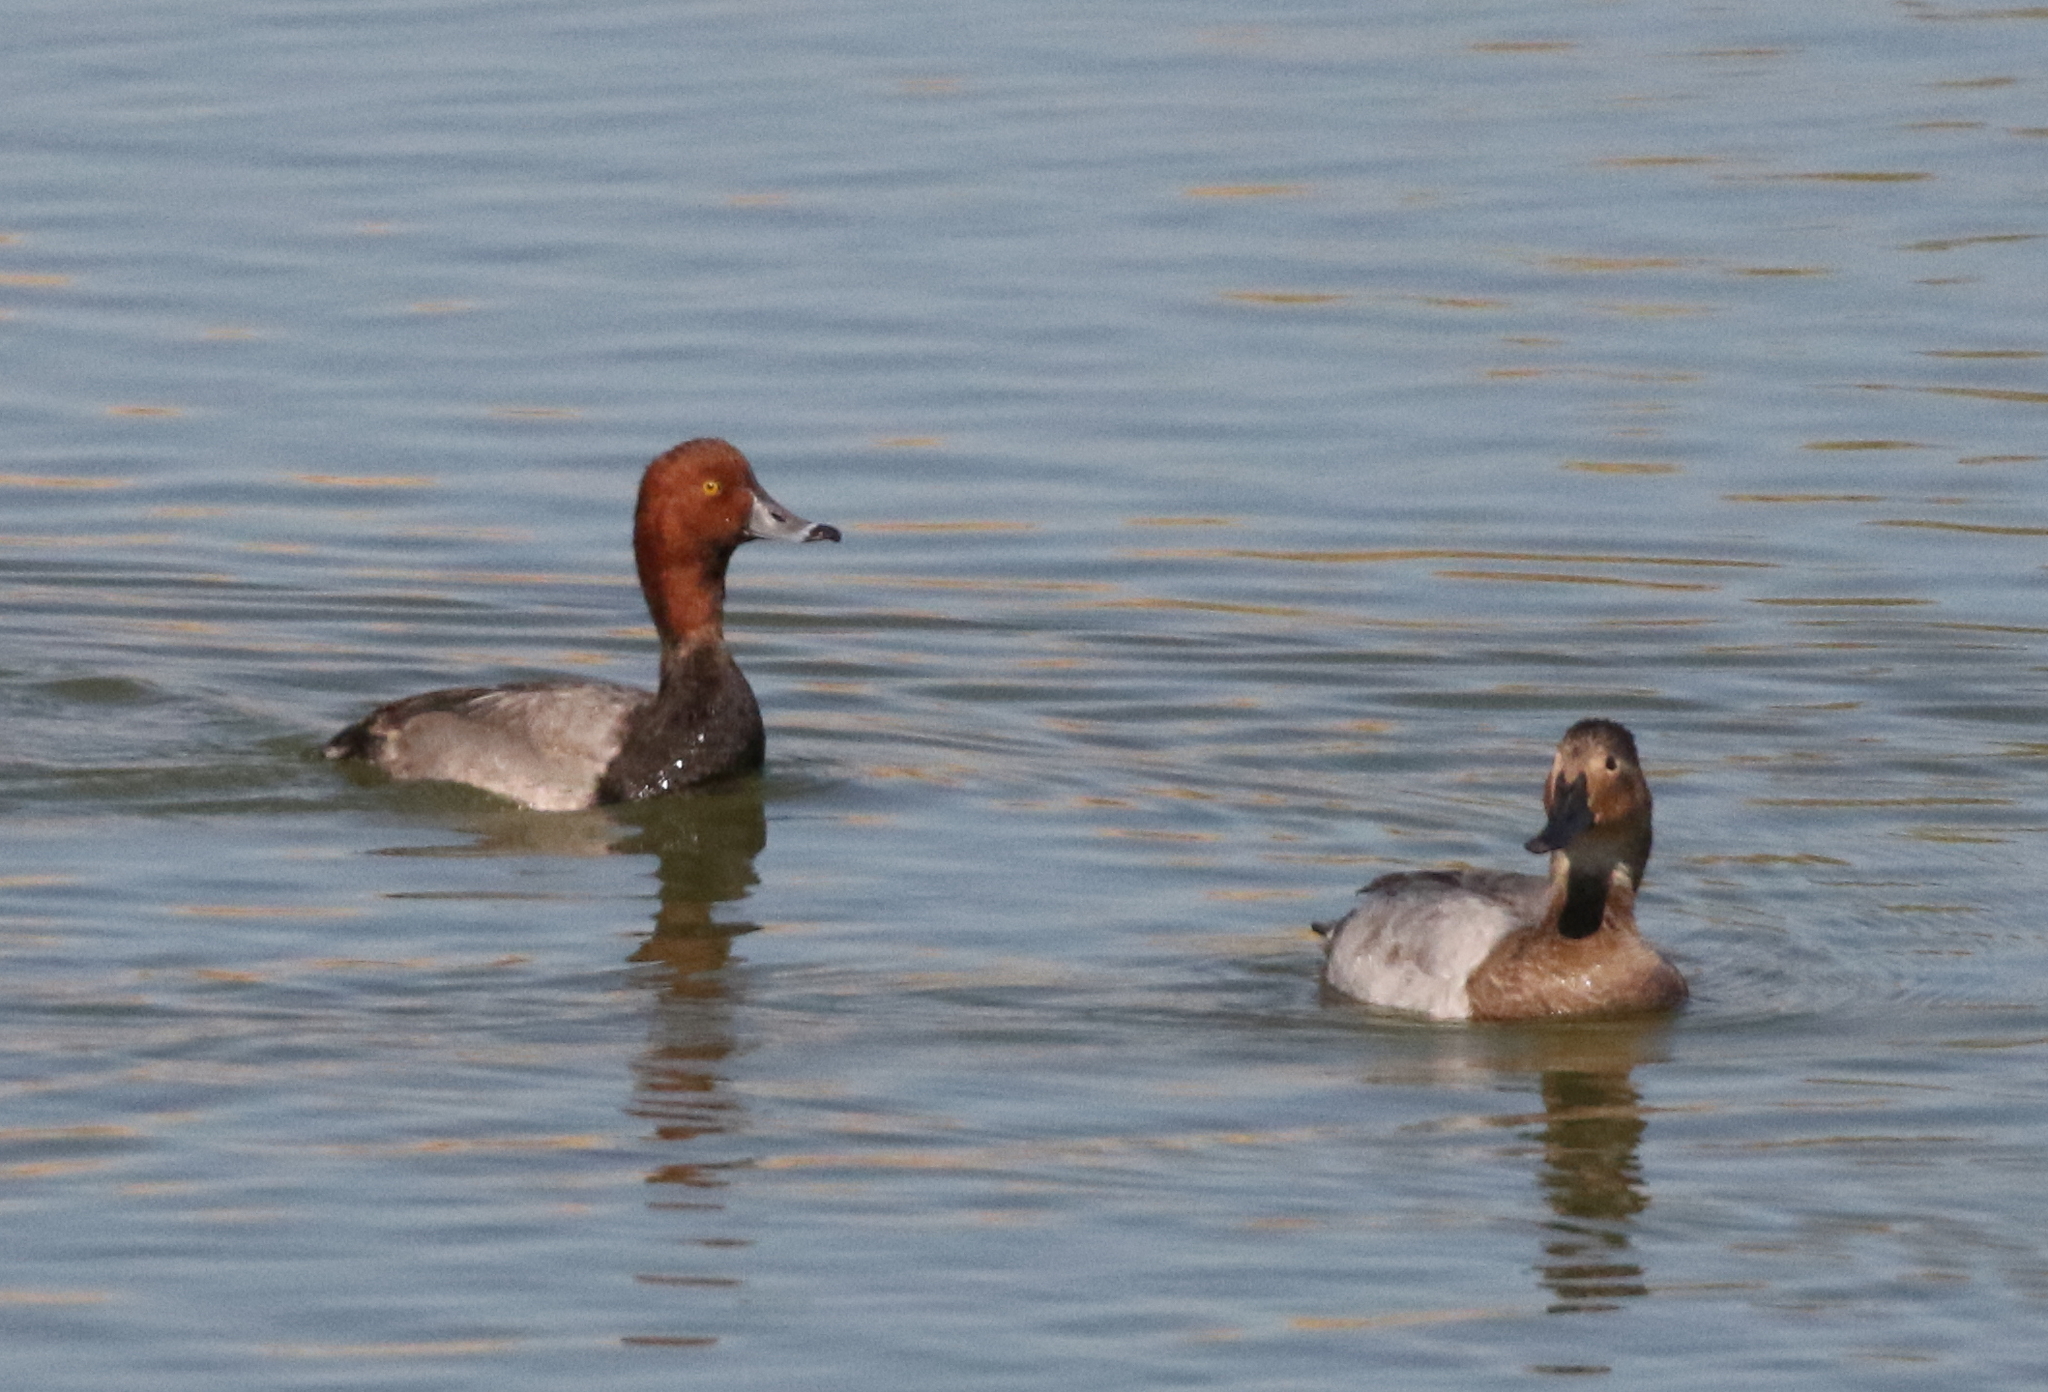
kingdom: Animalia
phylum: Chordata
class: Aves
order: Anseriformes
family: Anatidae
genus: Aythya
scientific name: Aythya valisineria
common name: Canvasback
